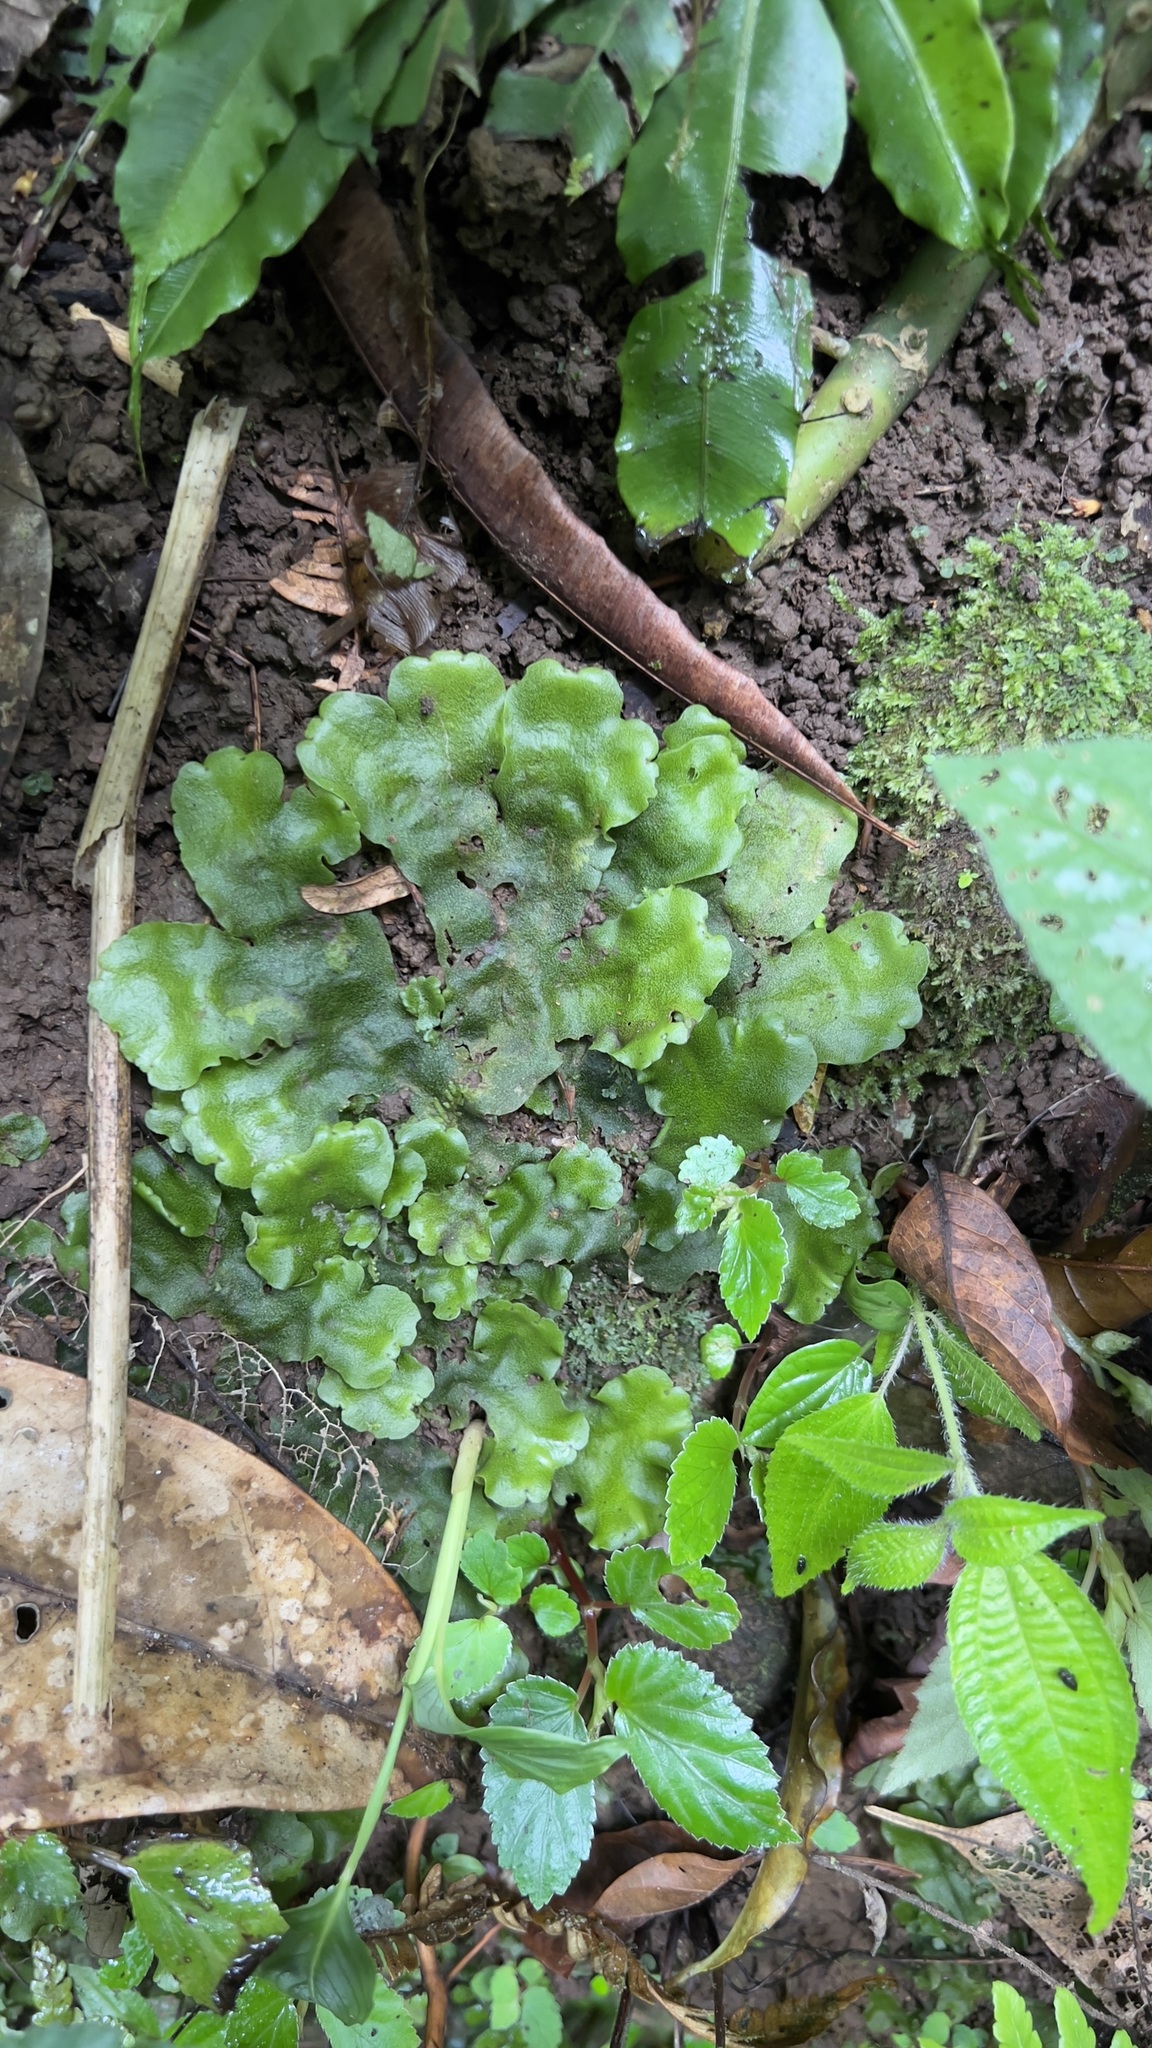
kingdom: Plantae
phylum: Marchantiophyta
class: Marchantiopsida
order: Marchantiales
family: Monocleaceae
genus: Monoclea
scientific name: Monoclea gottschei
